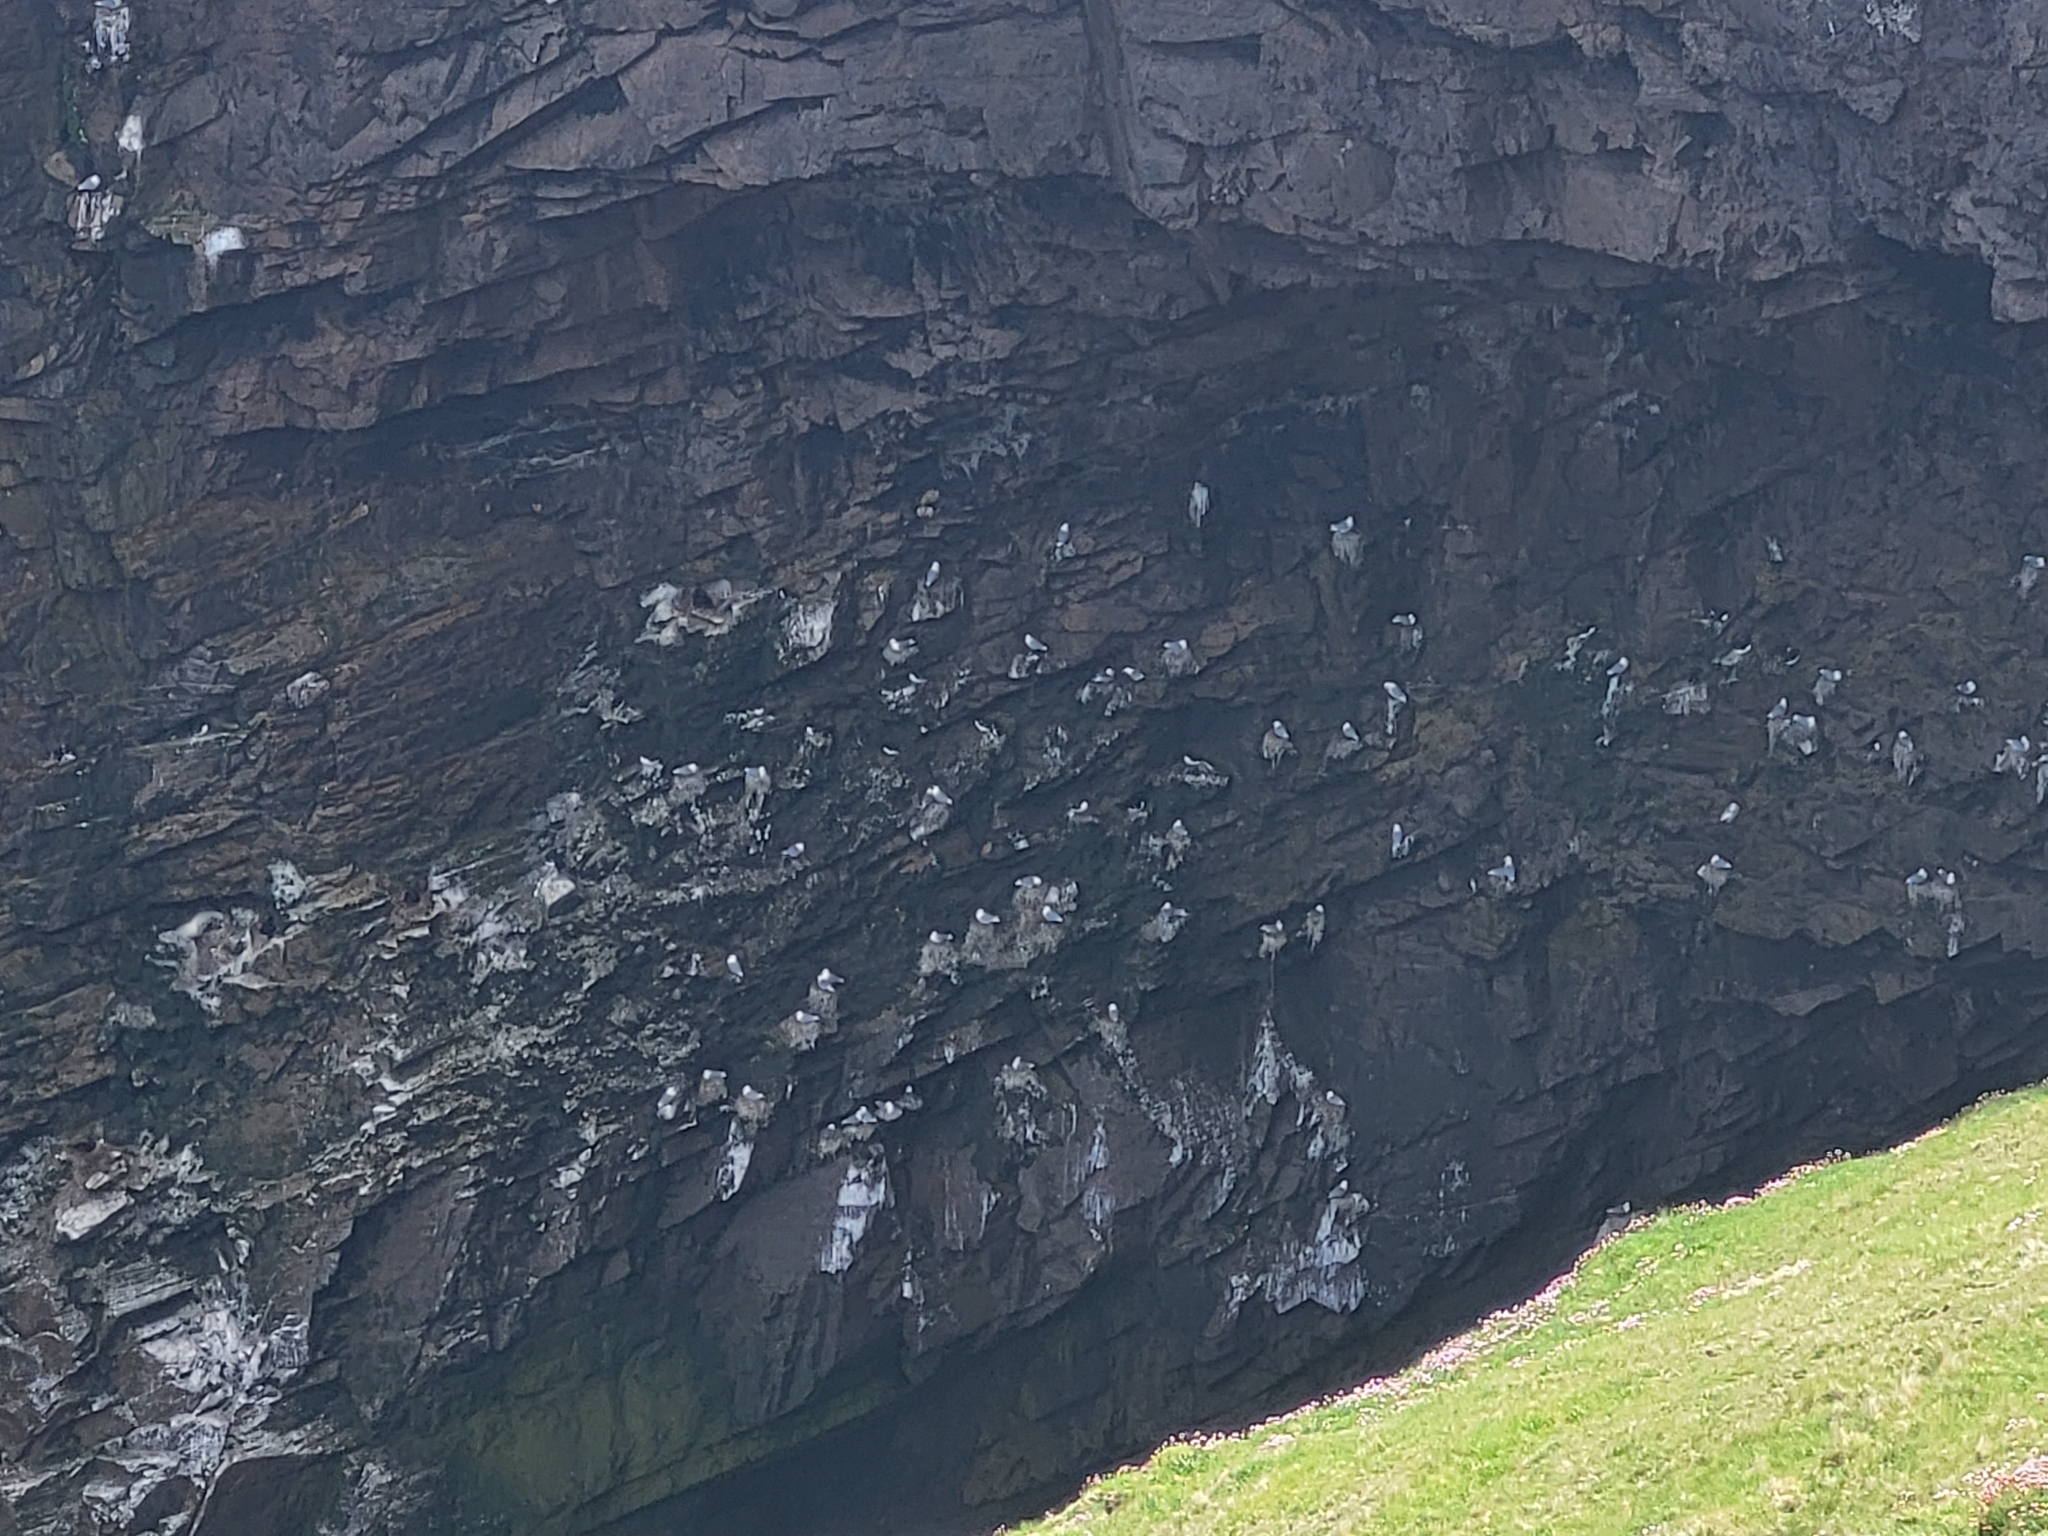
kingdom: Animalia
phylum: Chordata
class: Aves
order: Charadriiformes
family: Laridae
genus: Rissa
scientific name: Rissa tridactyla
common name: Black-legged kittiwake
